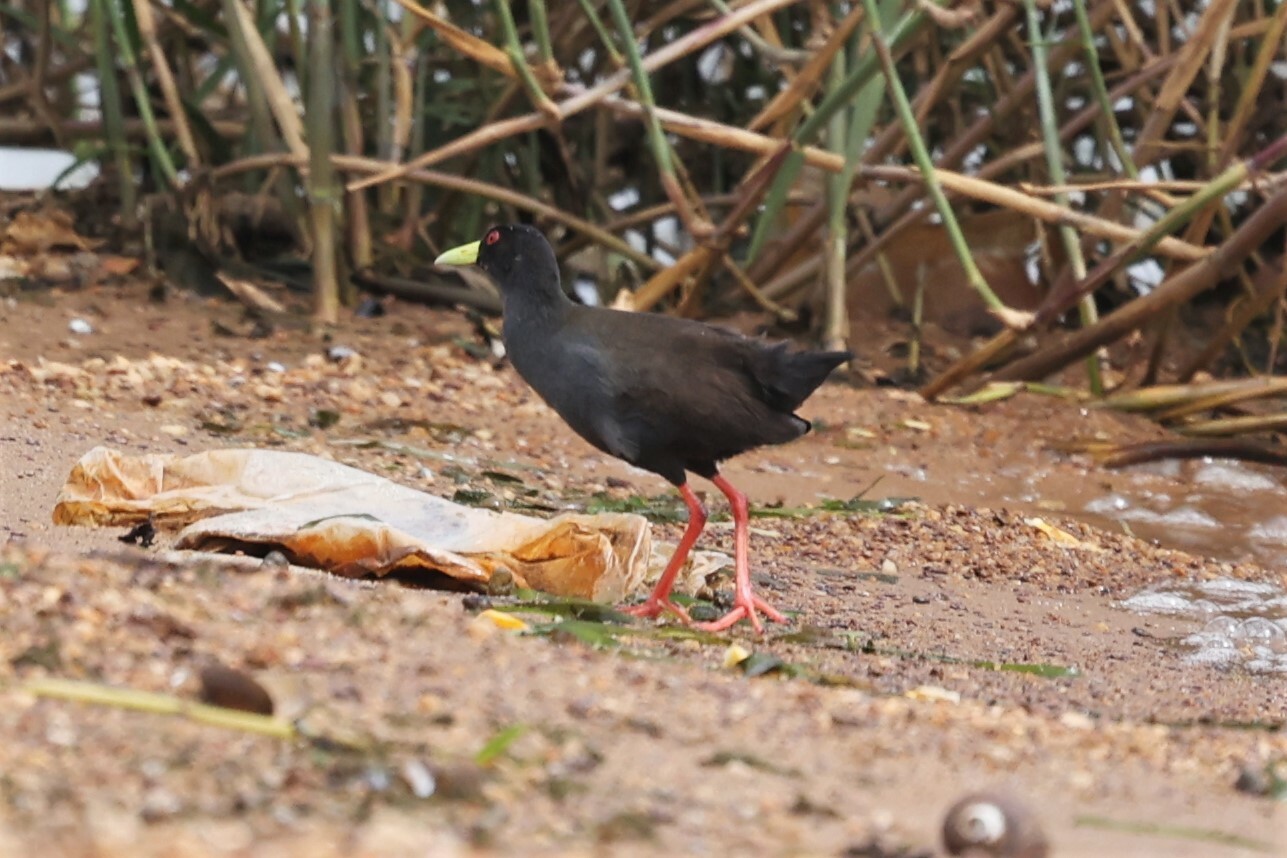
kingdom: Animalia
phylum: Chordata
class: Aves
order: Gruiformes
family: Rallidae
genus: Amaurornis
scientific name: Amaurornis flavirostra
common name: Black crake
